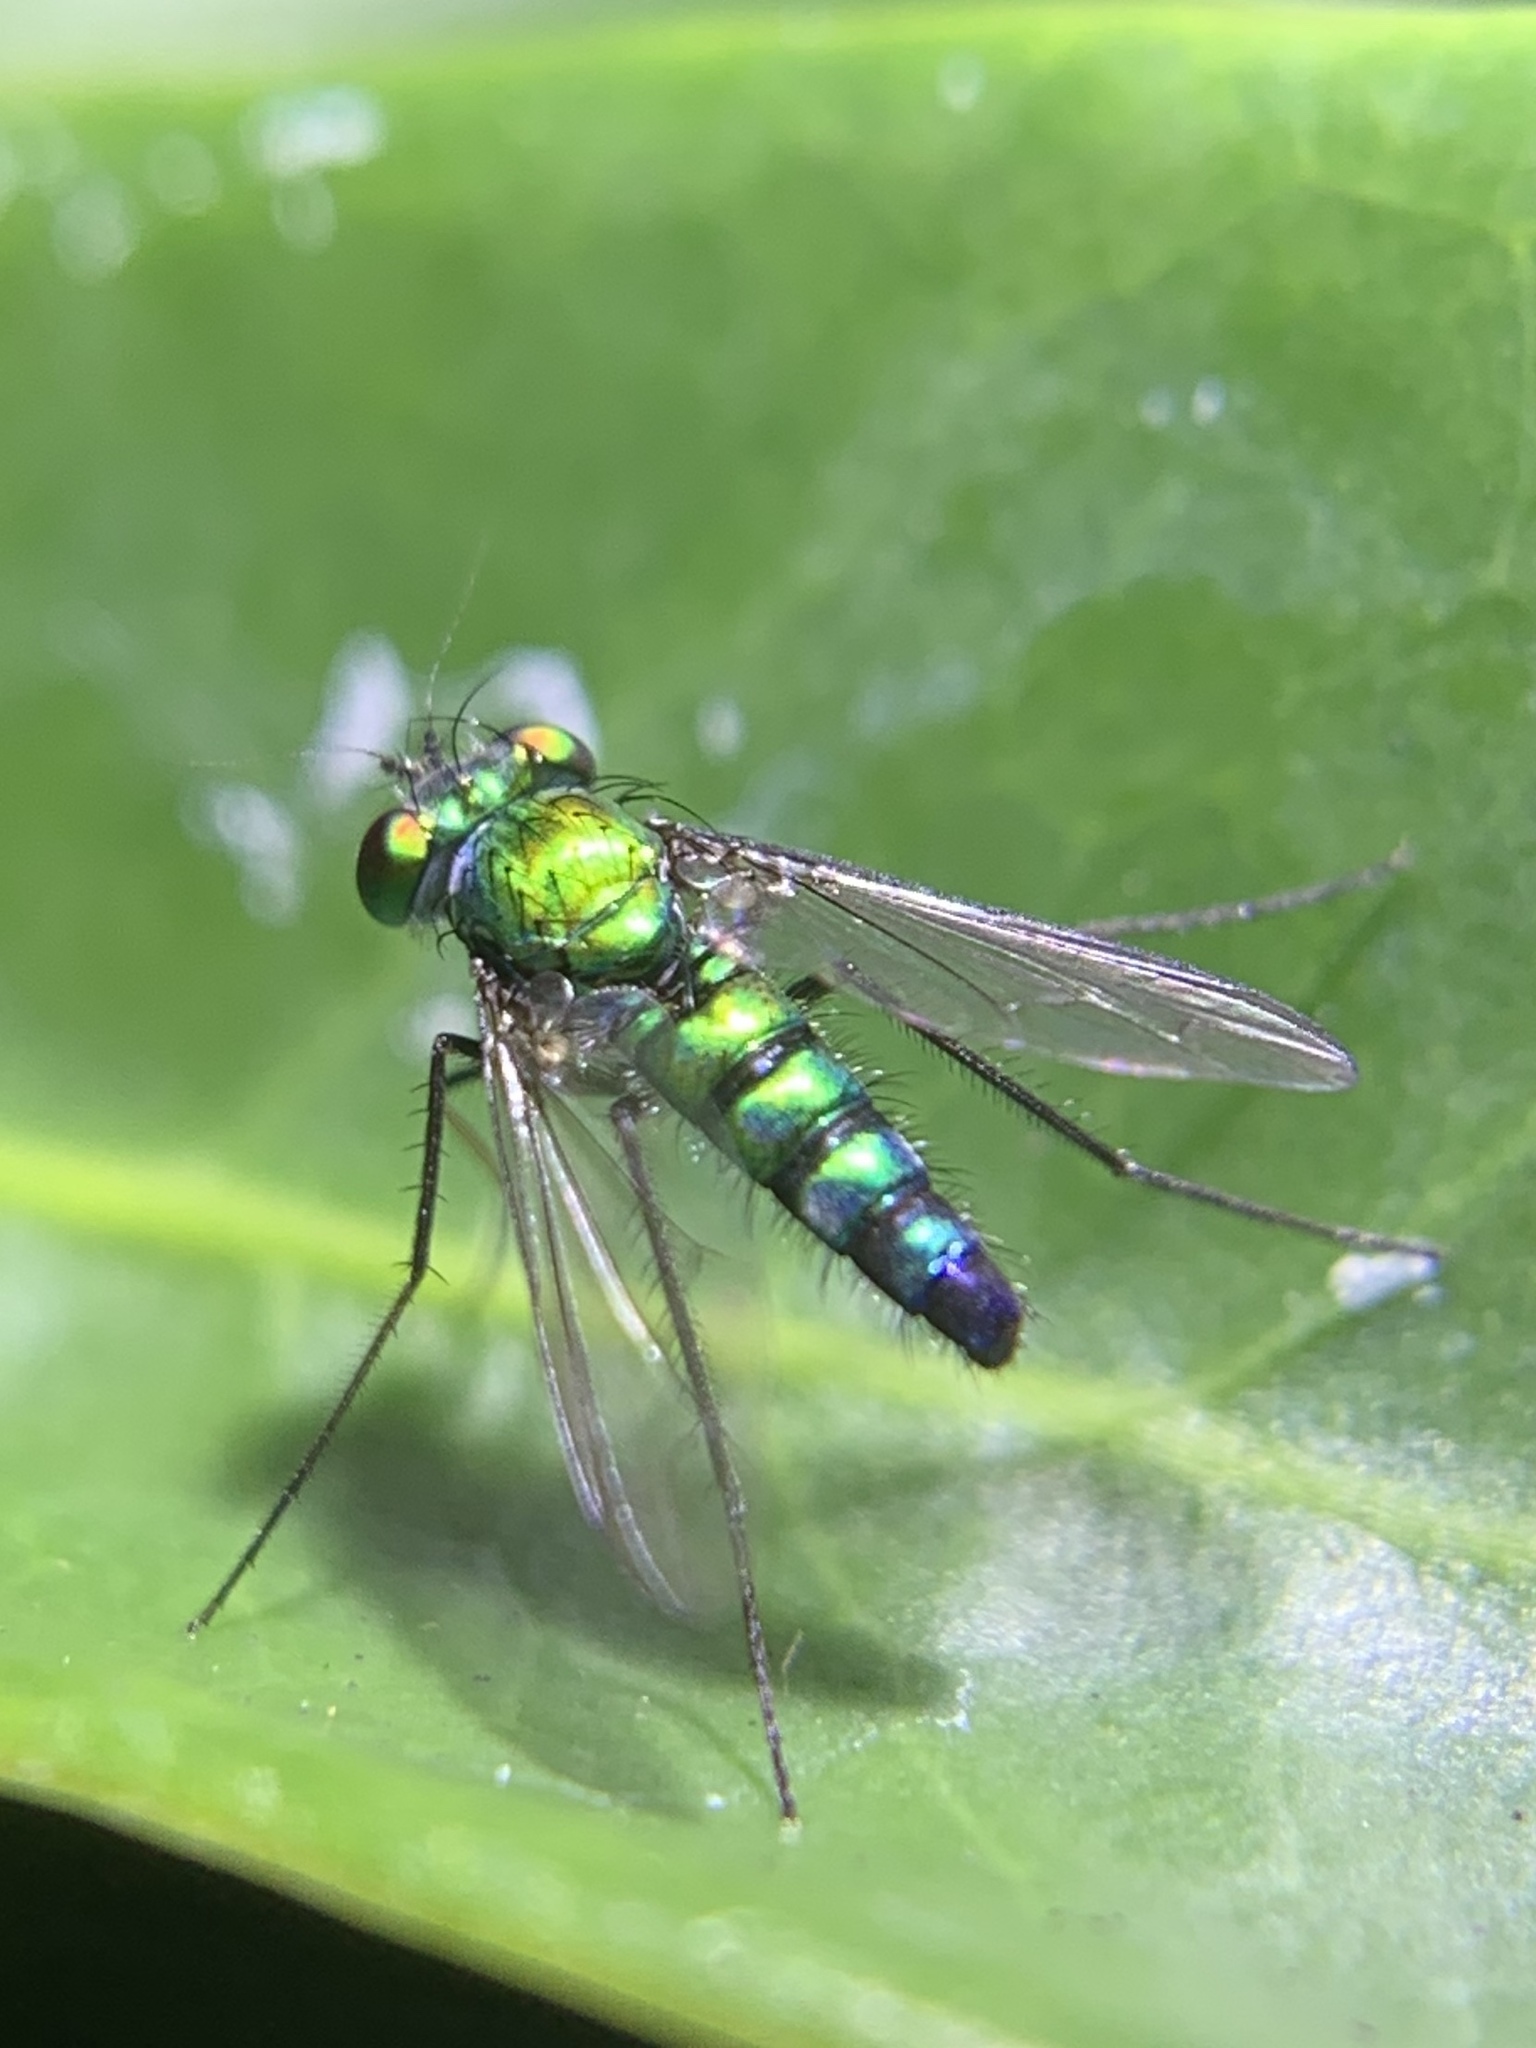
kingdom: Animalia
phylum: Arthropoda
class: Insecta
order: Diptera
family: Dolichopodidae
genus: Condylostylus
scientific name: Condylostylus longicornis
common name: Long-legged fly
